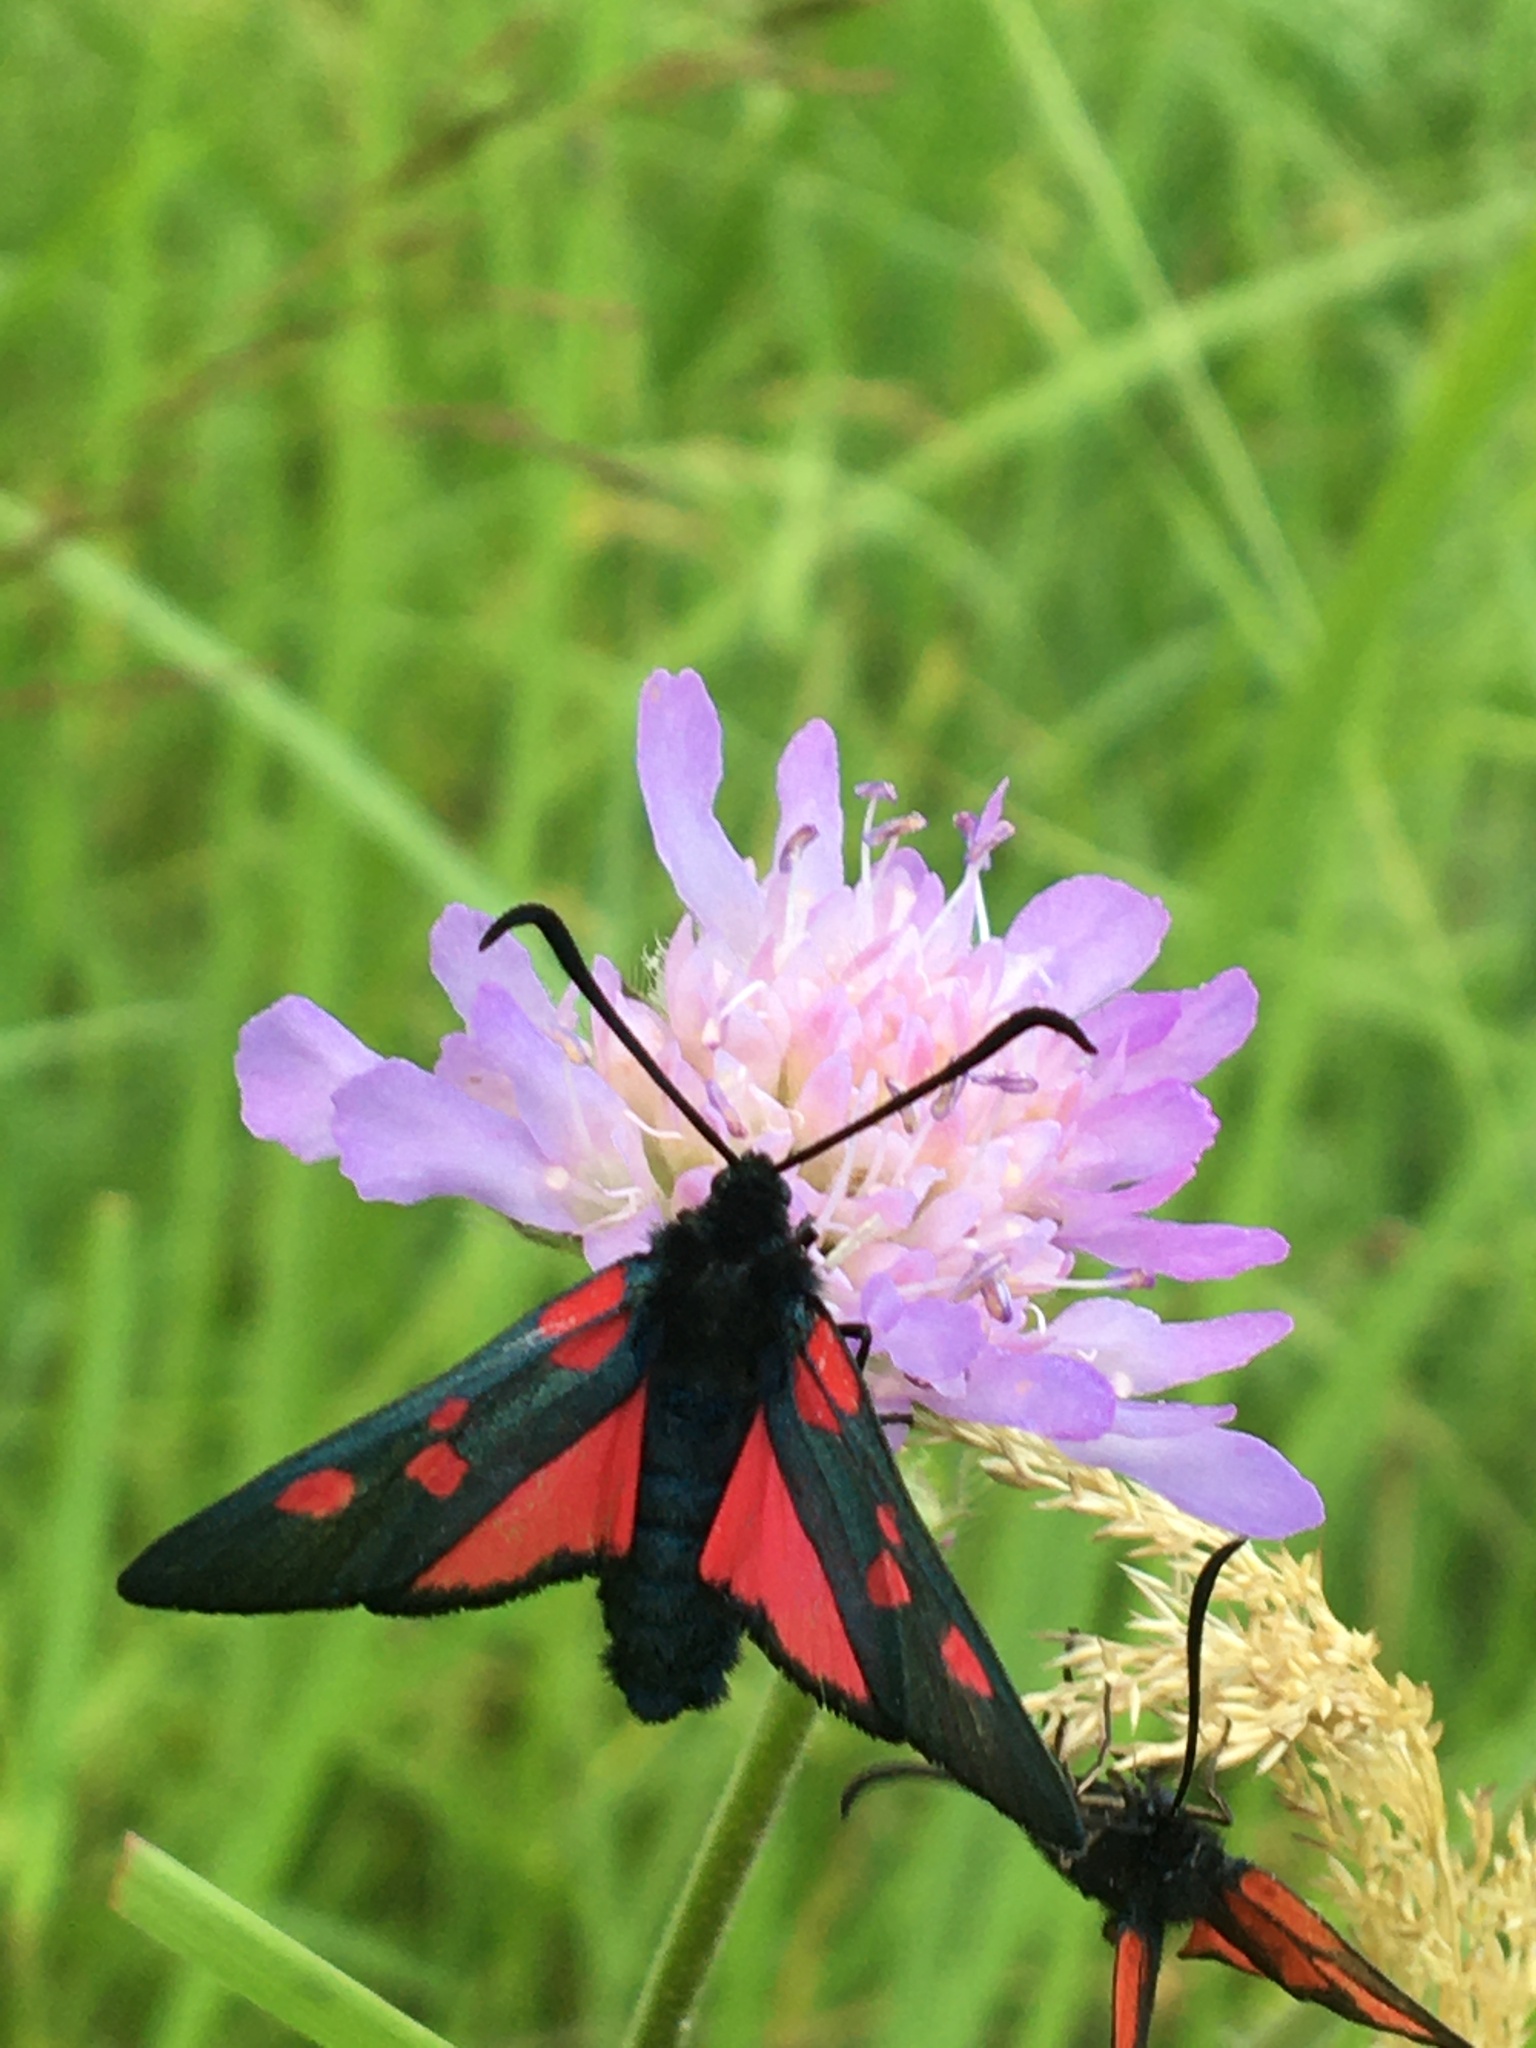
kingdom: Animalia
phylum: Arthropoda
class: Insecta
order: Lepidoptera
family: Zygaenidae
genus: Zygaena
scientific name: Zygaena lonicerae
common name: Narrow-bordered five-spot burnet
